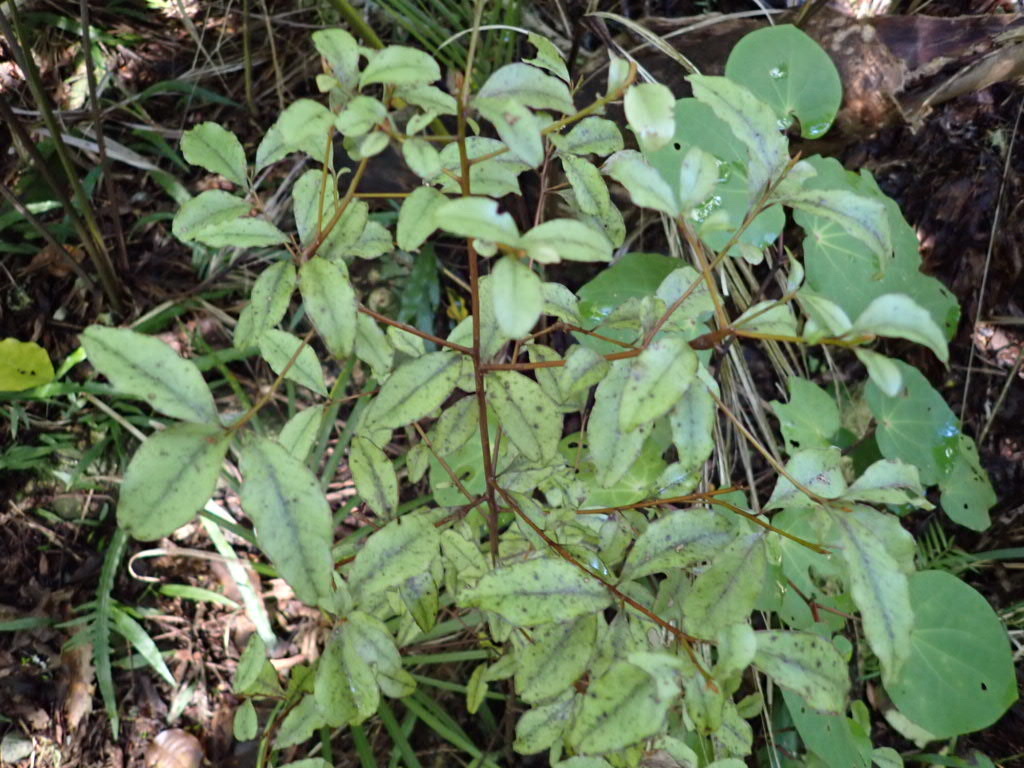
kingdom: Plantae
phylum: Tracheophyta
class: Magnoliopsida
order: Ericales
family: Primulaceae
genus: Myrsine
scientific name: Myrsine australis
